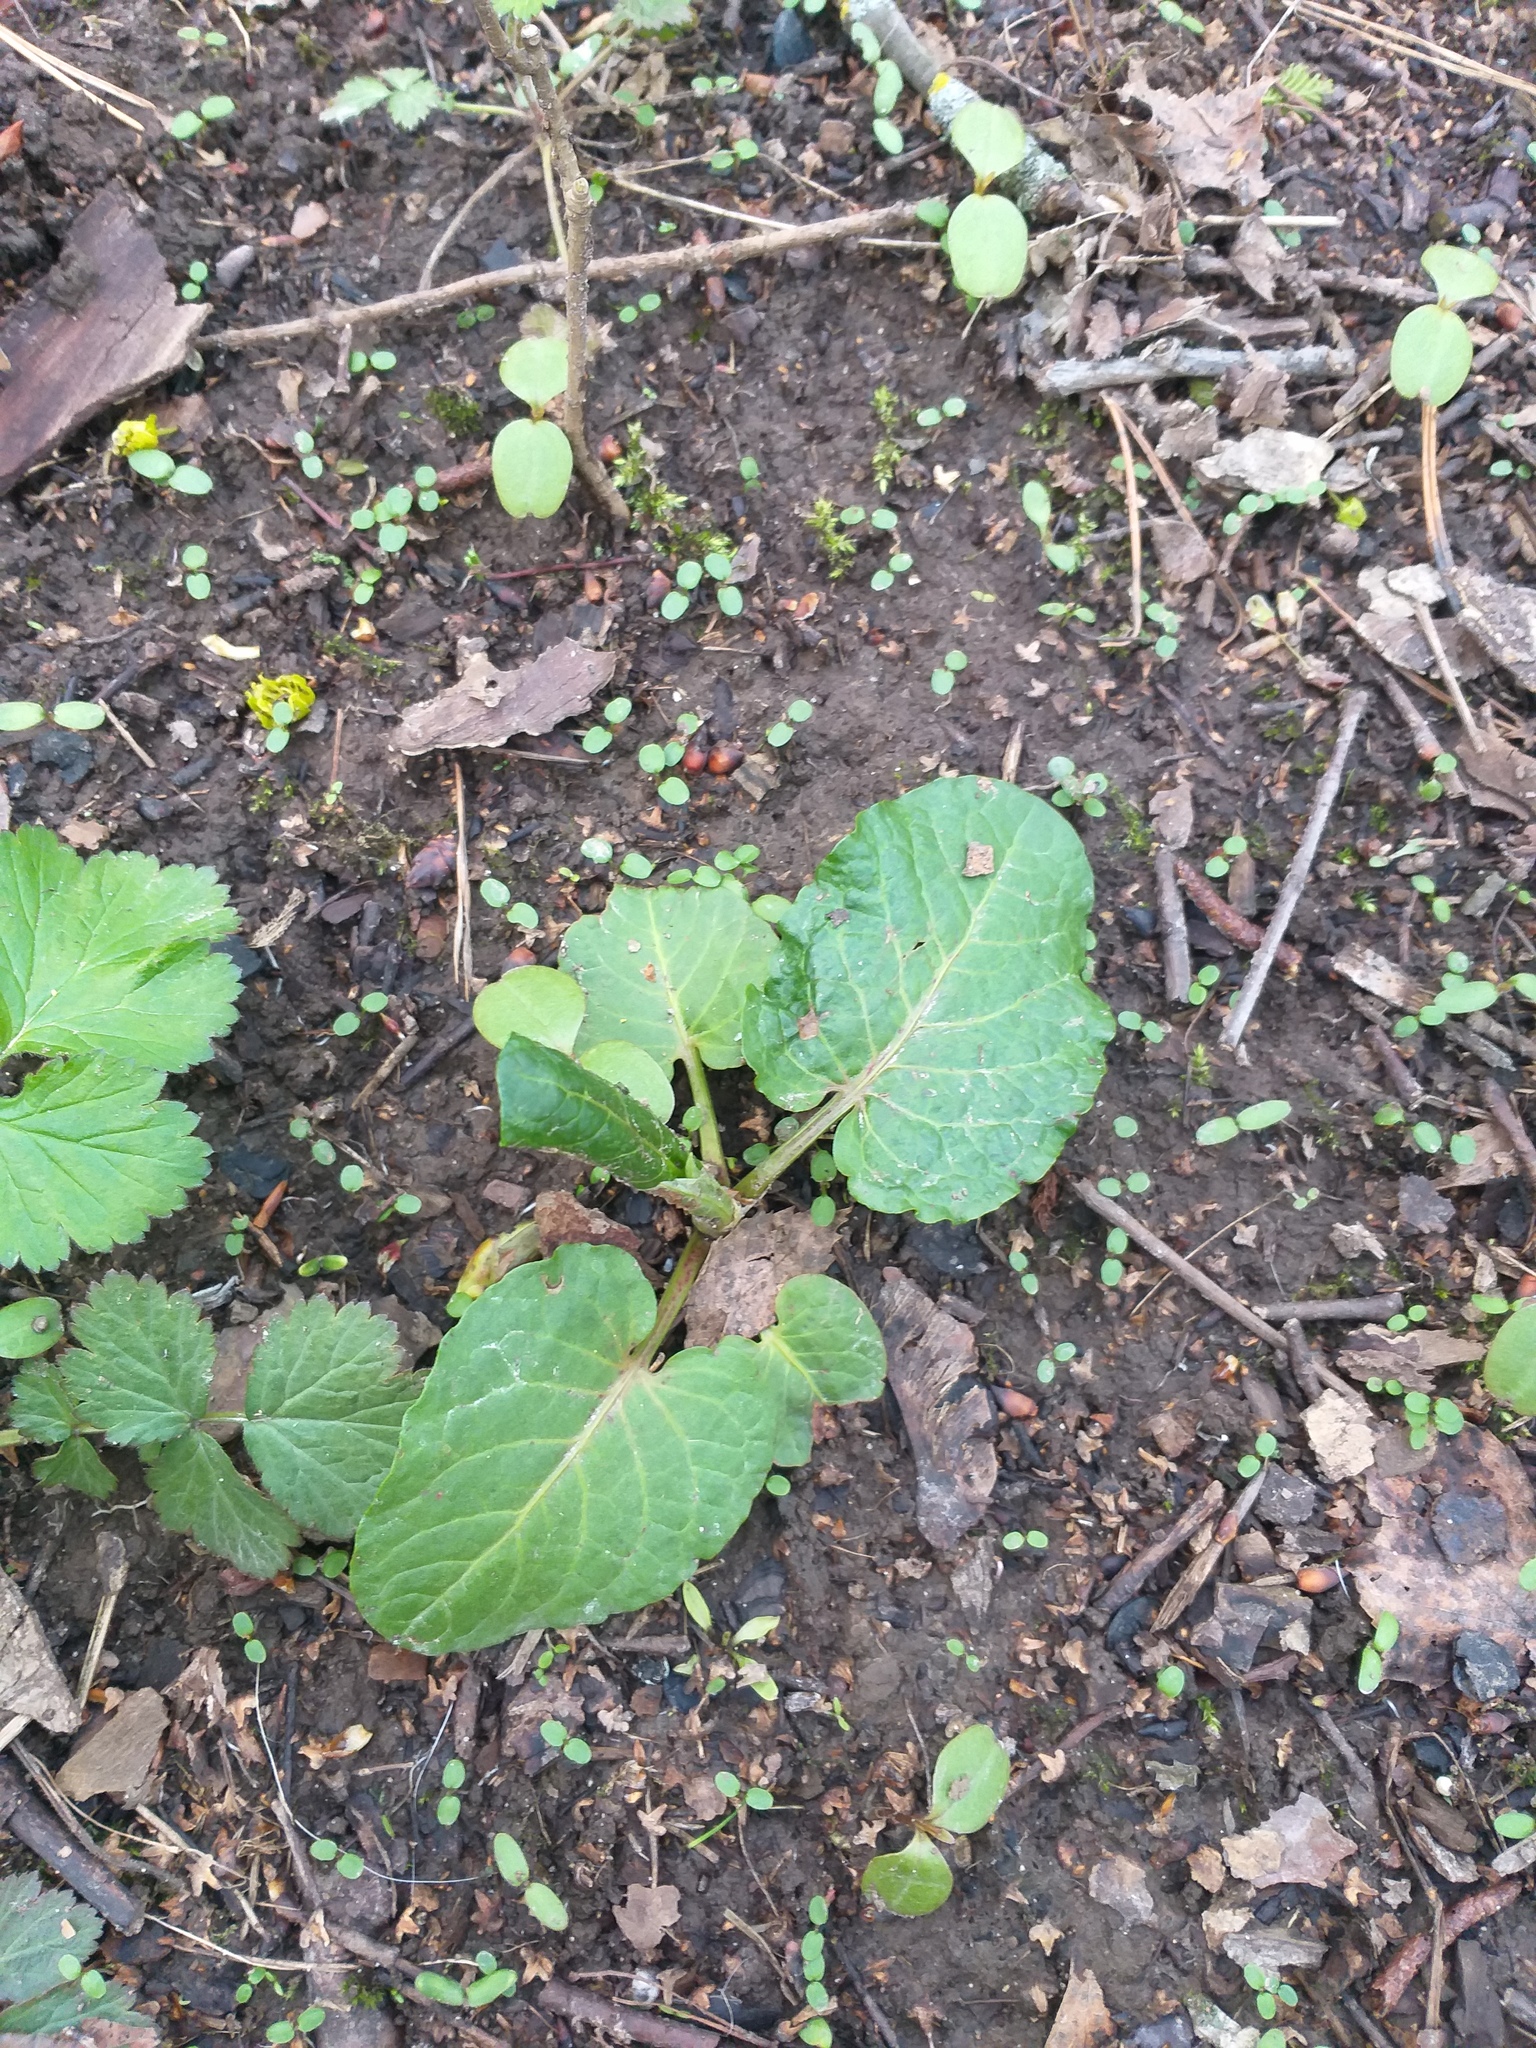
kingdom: Plantae
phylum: Tracheophyta
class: Magnoliopsida
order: Caryophyllales
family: Polygonaceae
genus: Rumex
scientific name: Rumex obtusifolius
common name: Bitter dock
